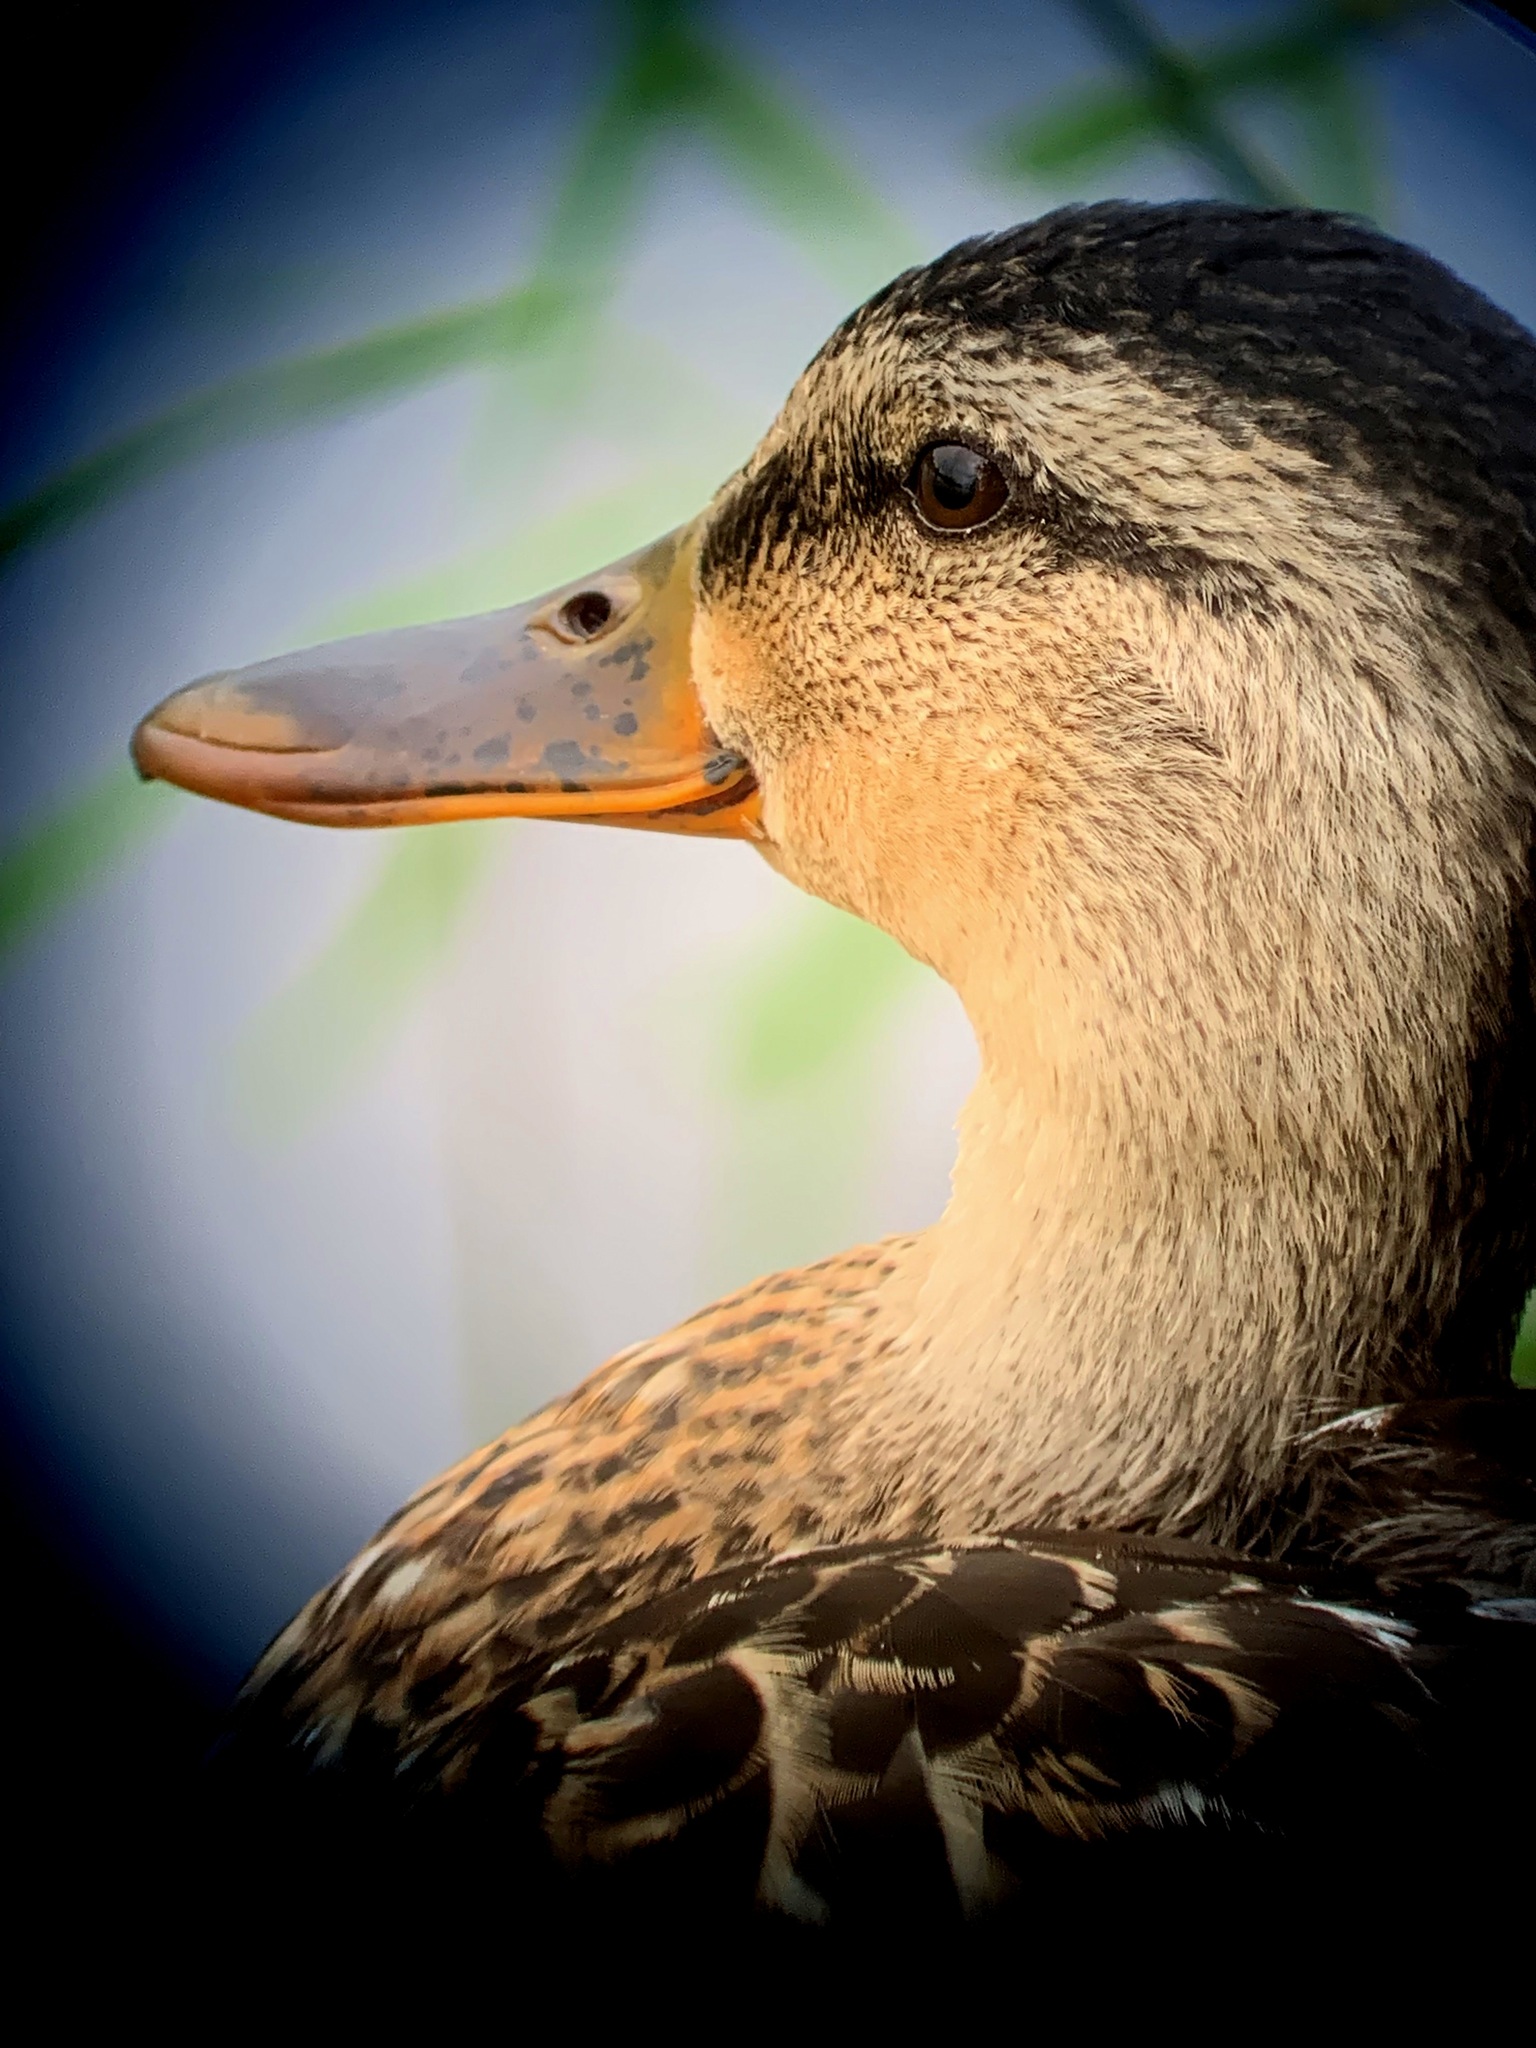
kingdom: Animalia
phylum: Chordata
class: Aves
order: Anseriformes
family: Anatidae
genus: Anas
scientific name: Anas platyrhynchos
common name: Mallard
